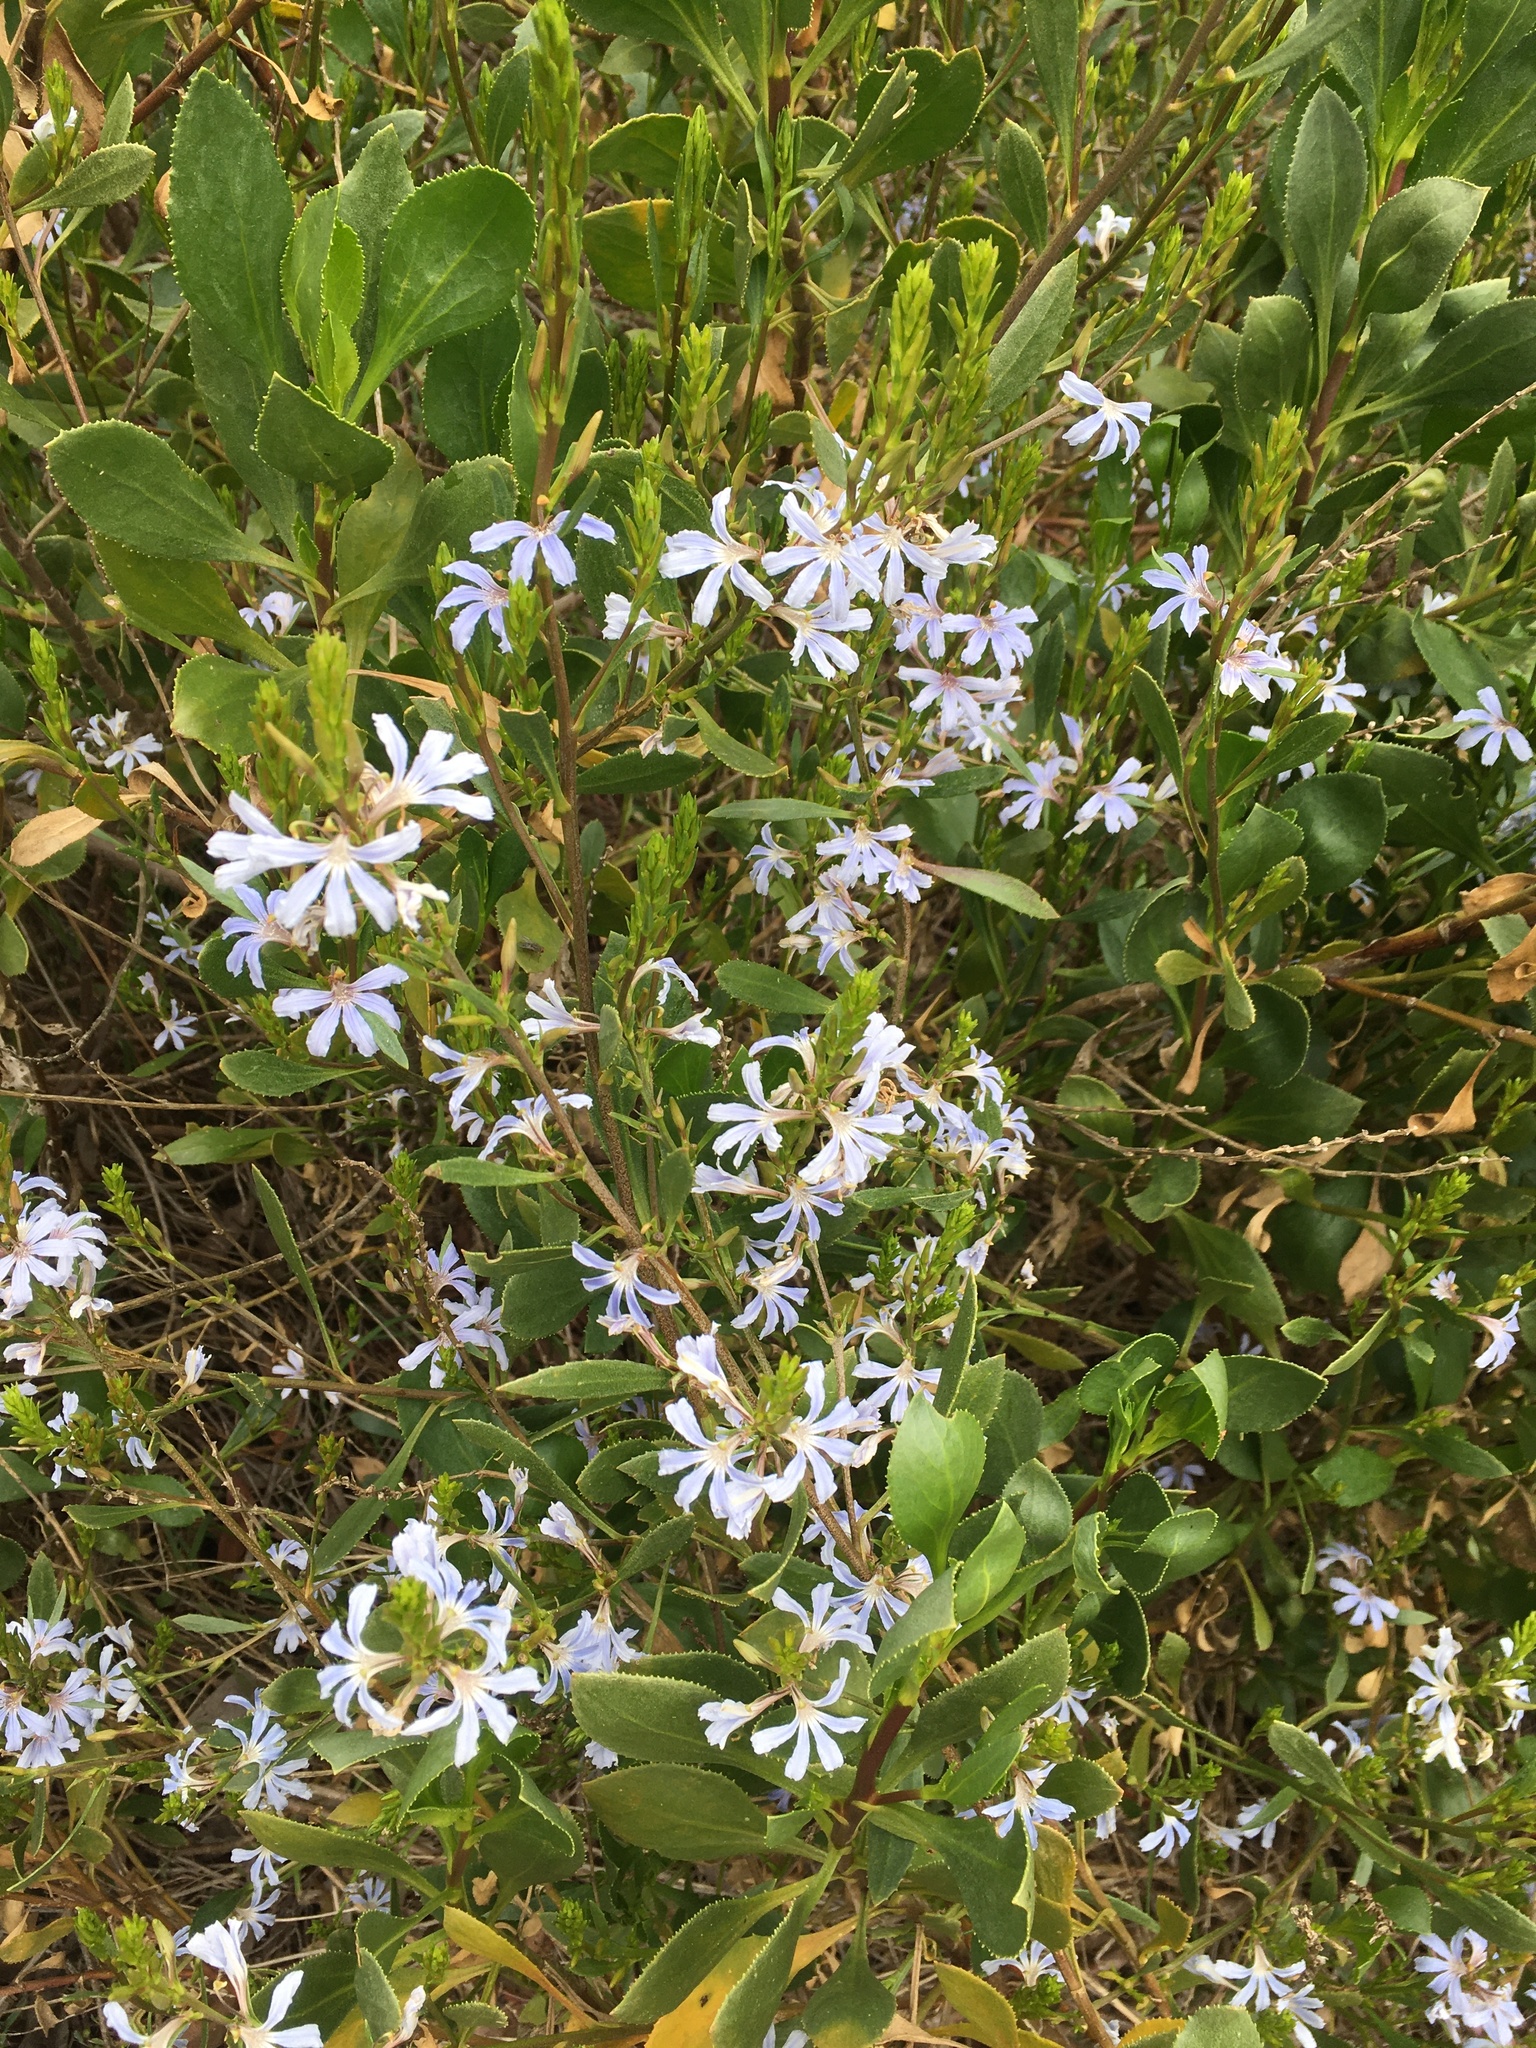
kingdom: Plantae
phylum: Tracheophyta
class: Magnoliopsida
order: Asterales
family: Goodeniaceae
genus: Scaevola
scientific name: Scaevola crassifolia
